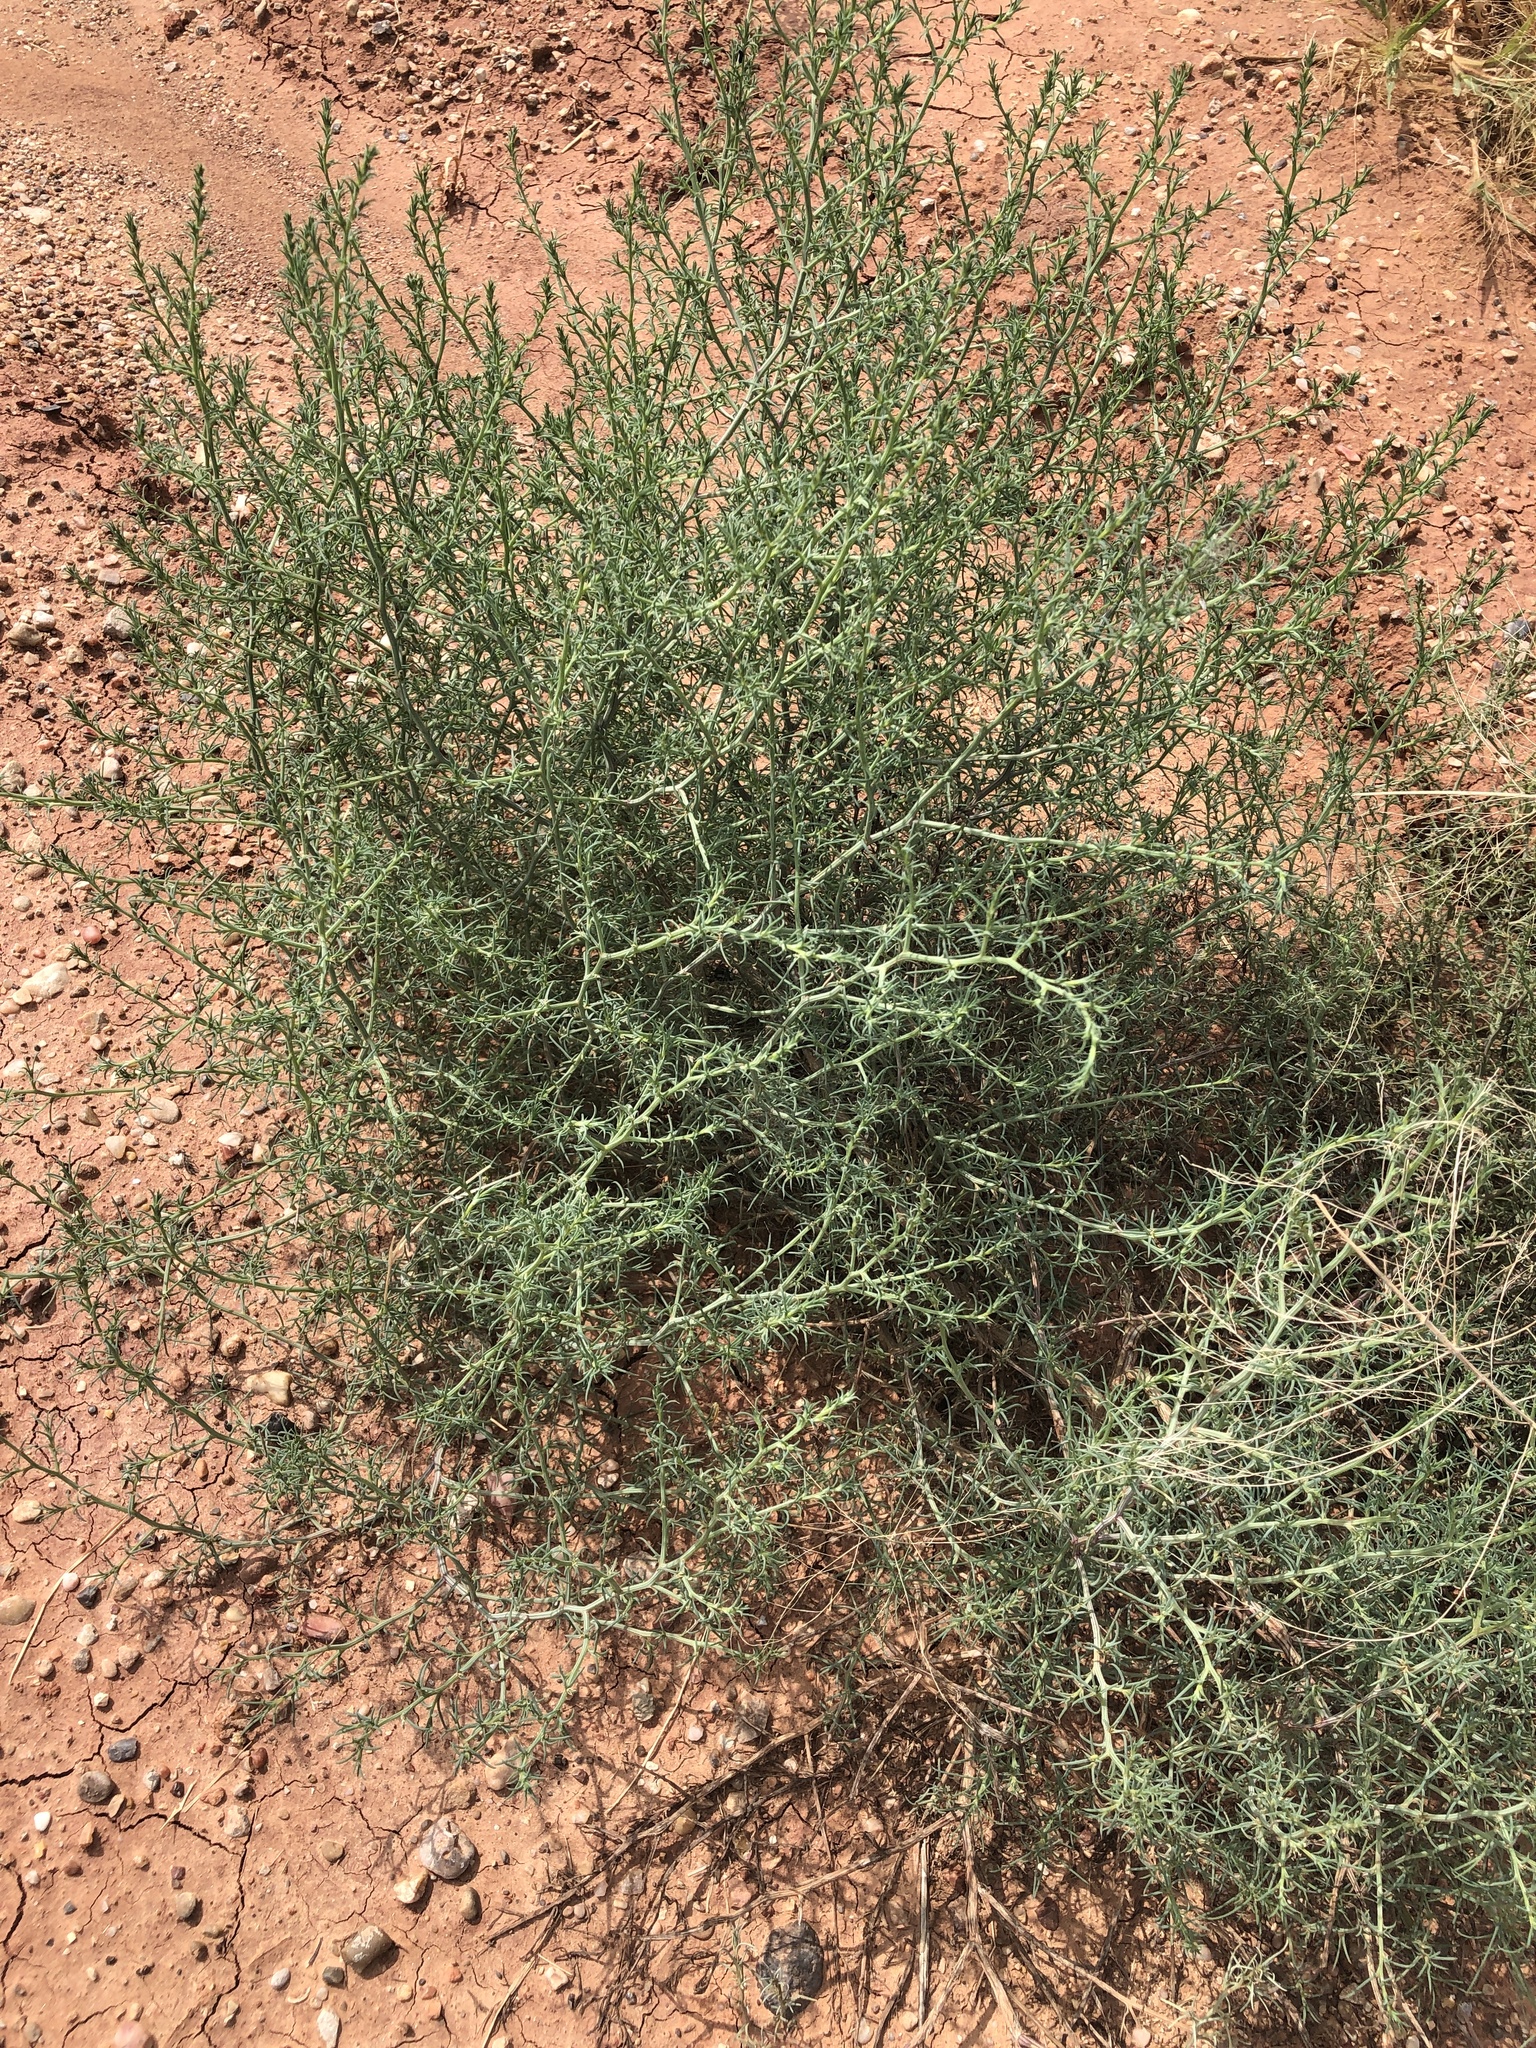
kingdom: Plantae
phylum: Tracheophyta
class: Magnoliopsida
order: Caryophyllales
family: Amaranthaceae
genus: Salsola
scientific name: Salsola tragus
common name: Prickly russian thistle
